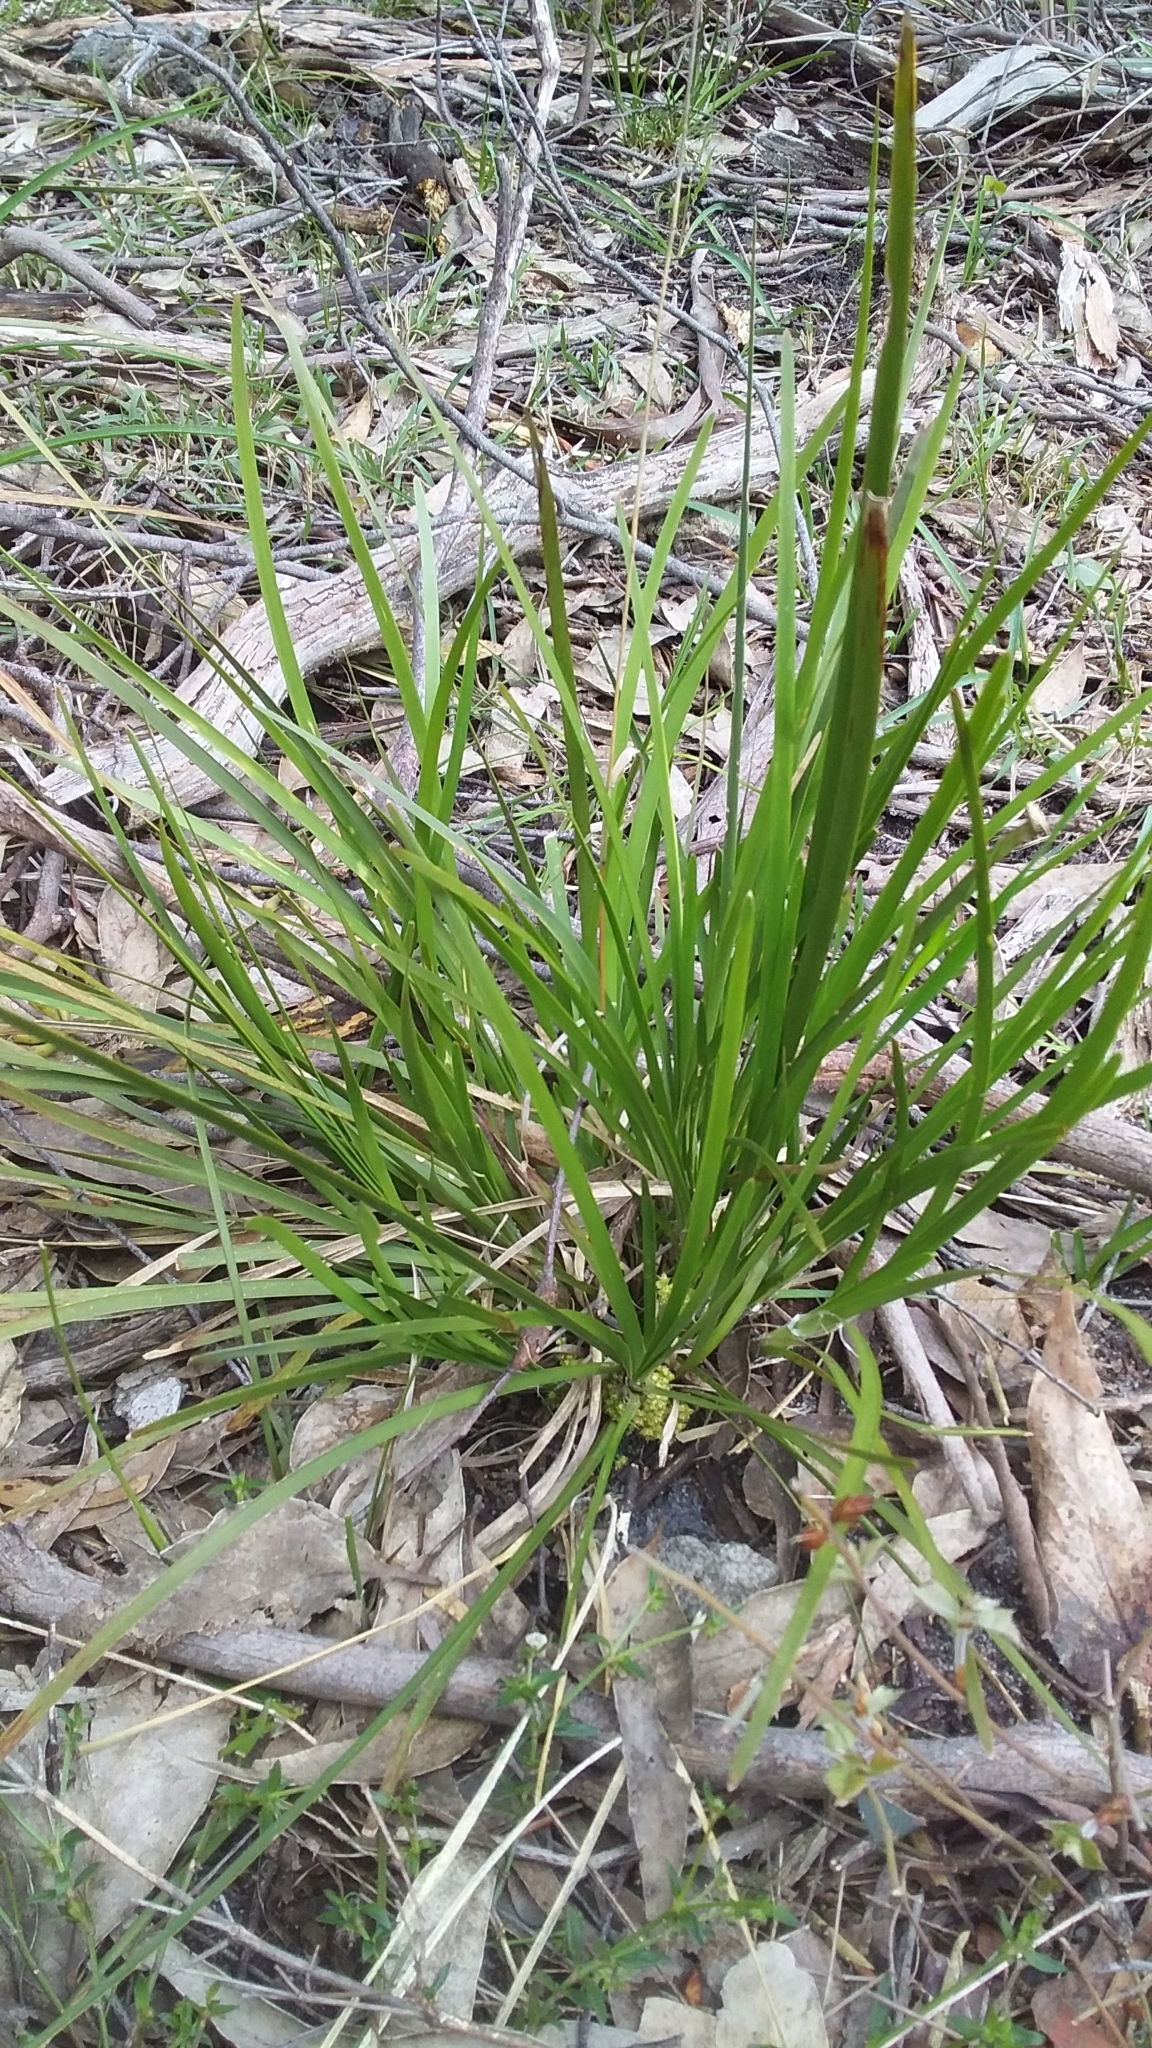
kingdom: Plantae
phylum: Tracheophyta
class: Liliopsida
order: Asparagales
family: Asparagaceae
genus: Lomandra
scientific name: Lomandra densiflora
